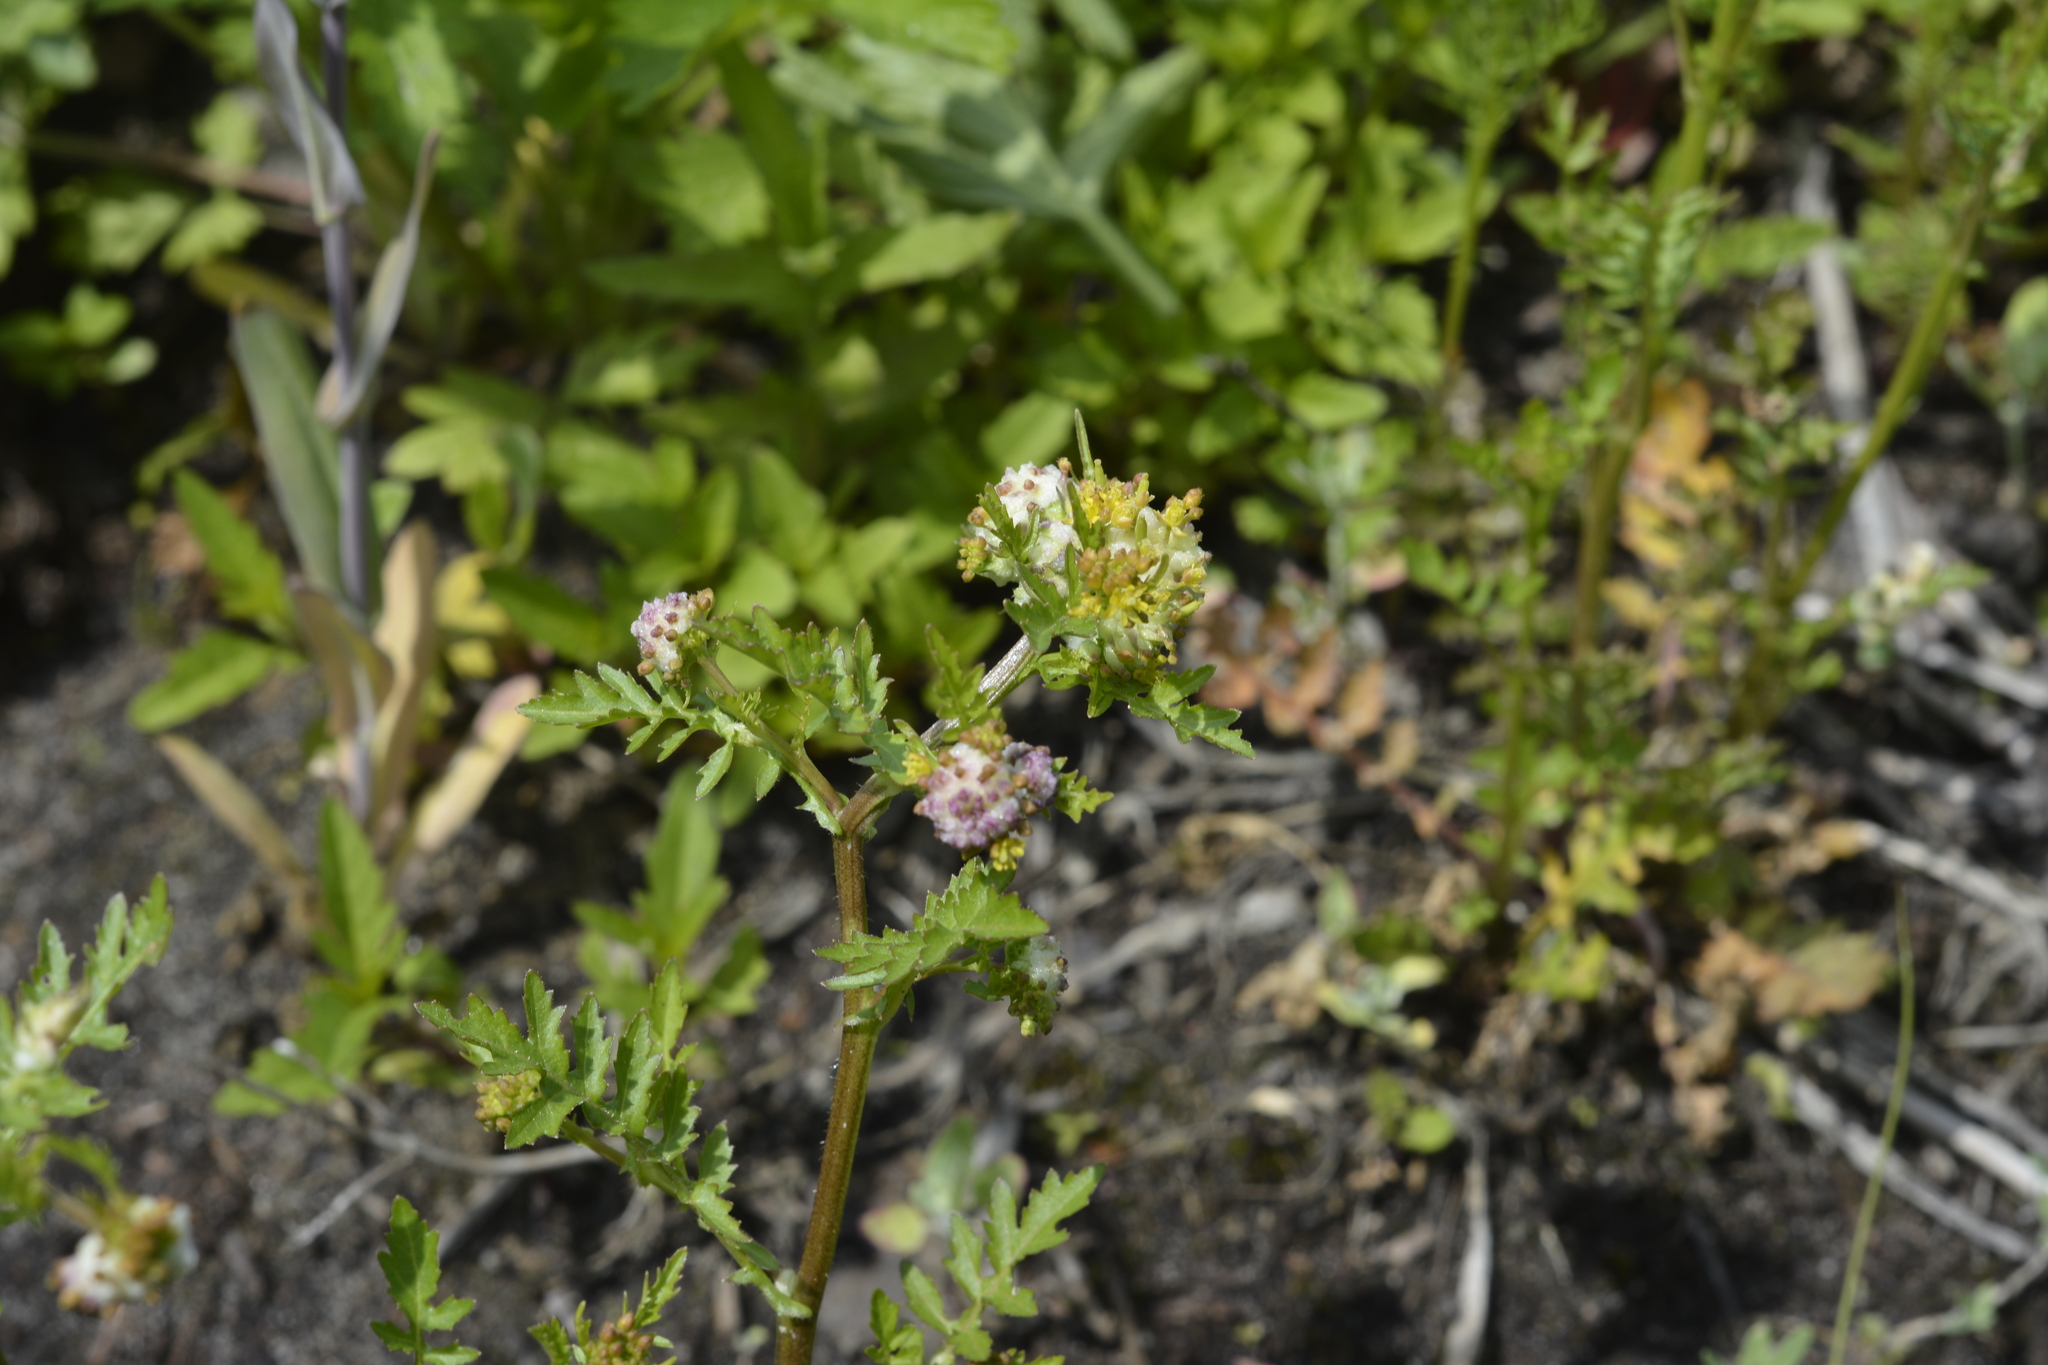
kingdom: Plantae
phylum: Tracheophyta
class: Magnoliopsida
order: Brassicales
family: Brassicaceae
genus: Rorippa
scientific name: Rorippa palustris
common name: Marsh yellow-cress
